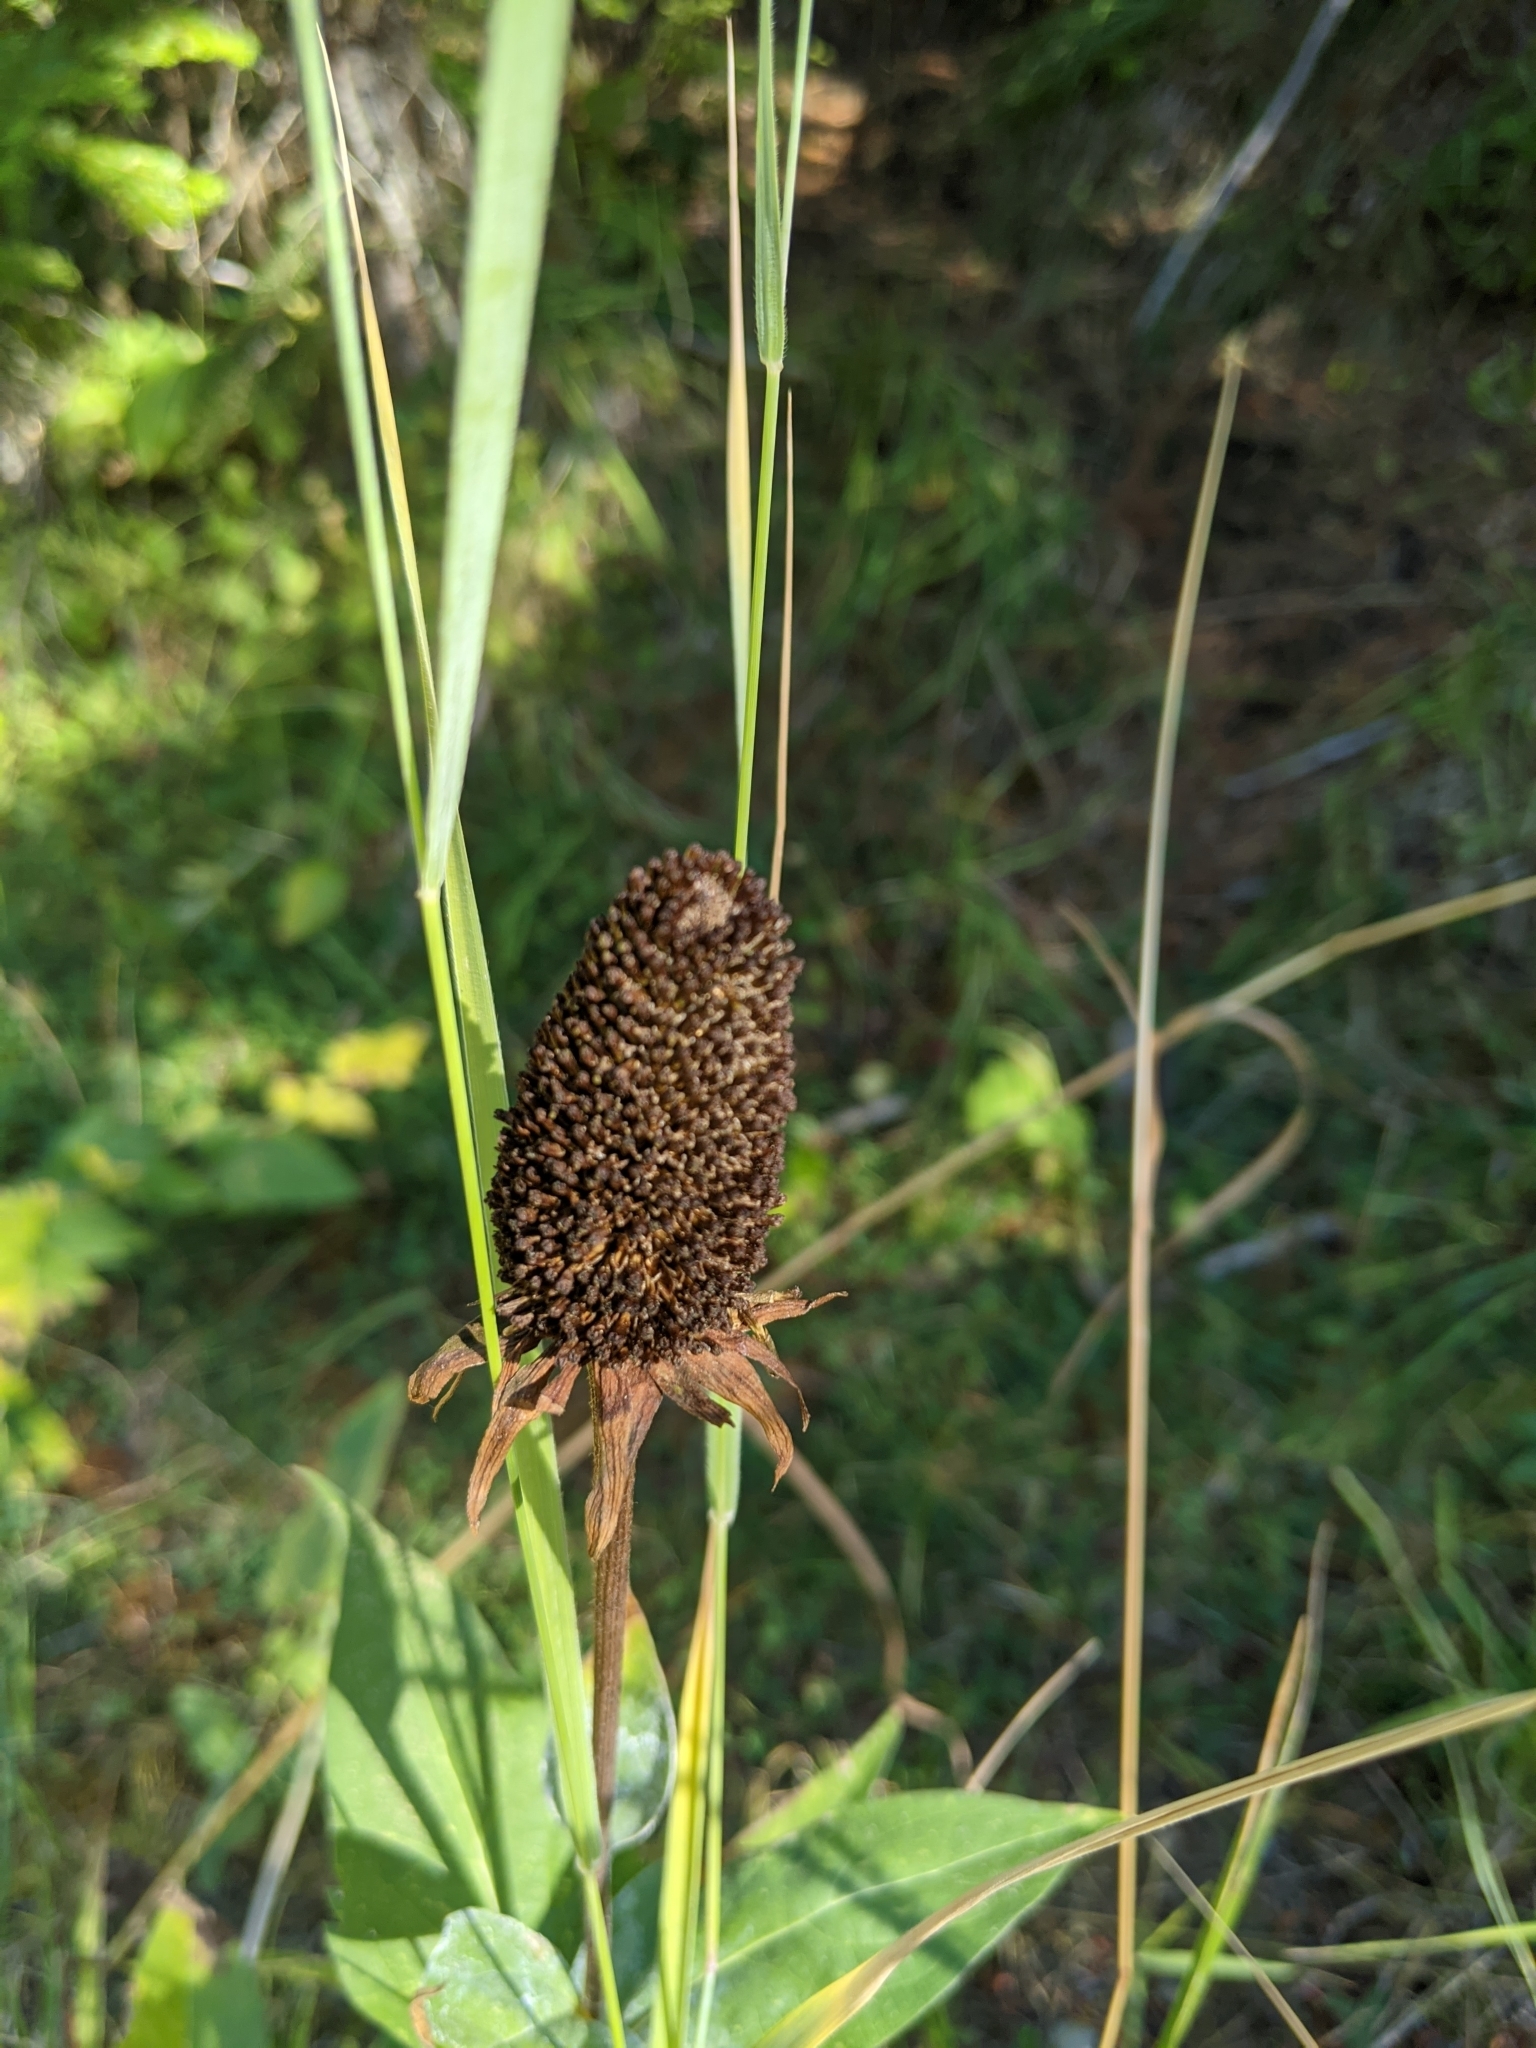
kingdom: Plantae
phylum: Tracheophyta
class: Magnoliopsida
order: Asterales
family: Asteraceae
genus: Rudbeckia
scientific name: Rudbeckia alpicola
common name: Washington coneflower
